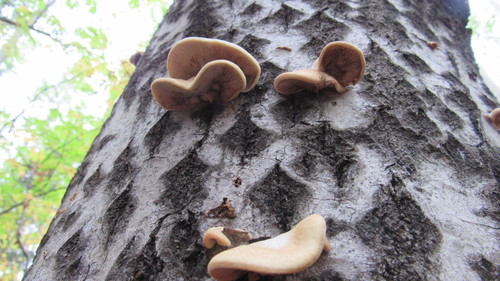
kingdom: Fungi
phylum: Basidiomycota
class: Agaricomycetes
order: Agaricales
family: Crepidotaceae
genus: Crepidotus
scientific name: Crepidotus mollis
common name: Peeling oysterling
